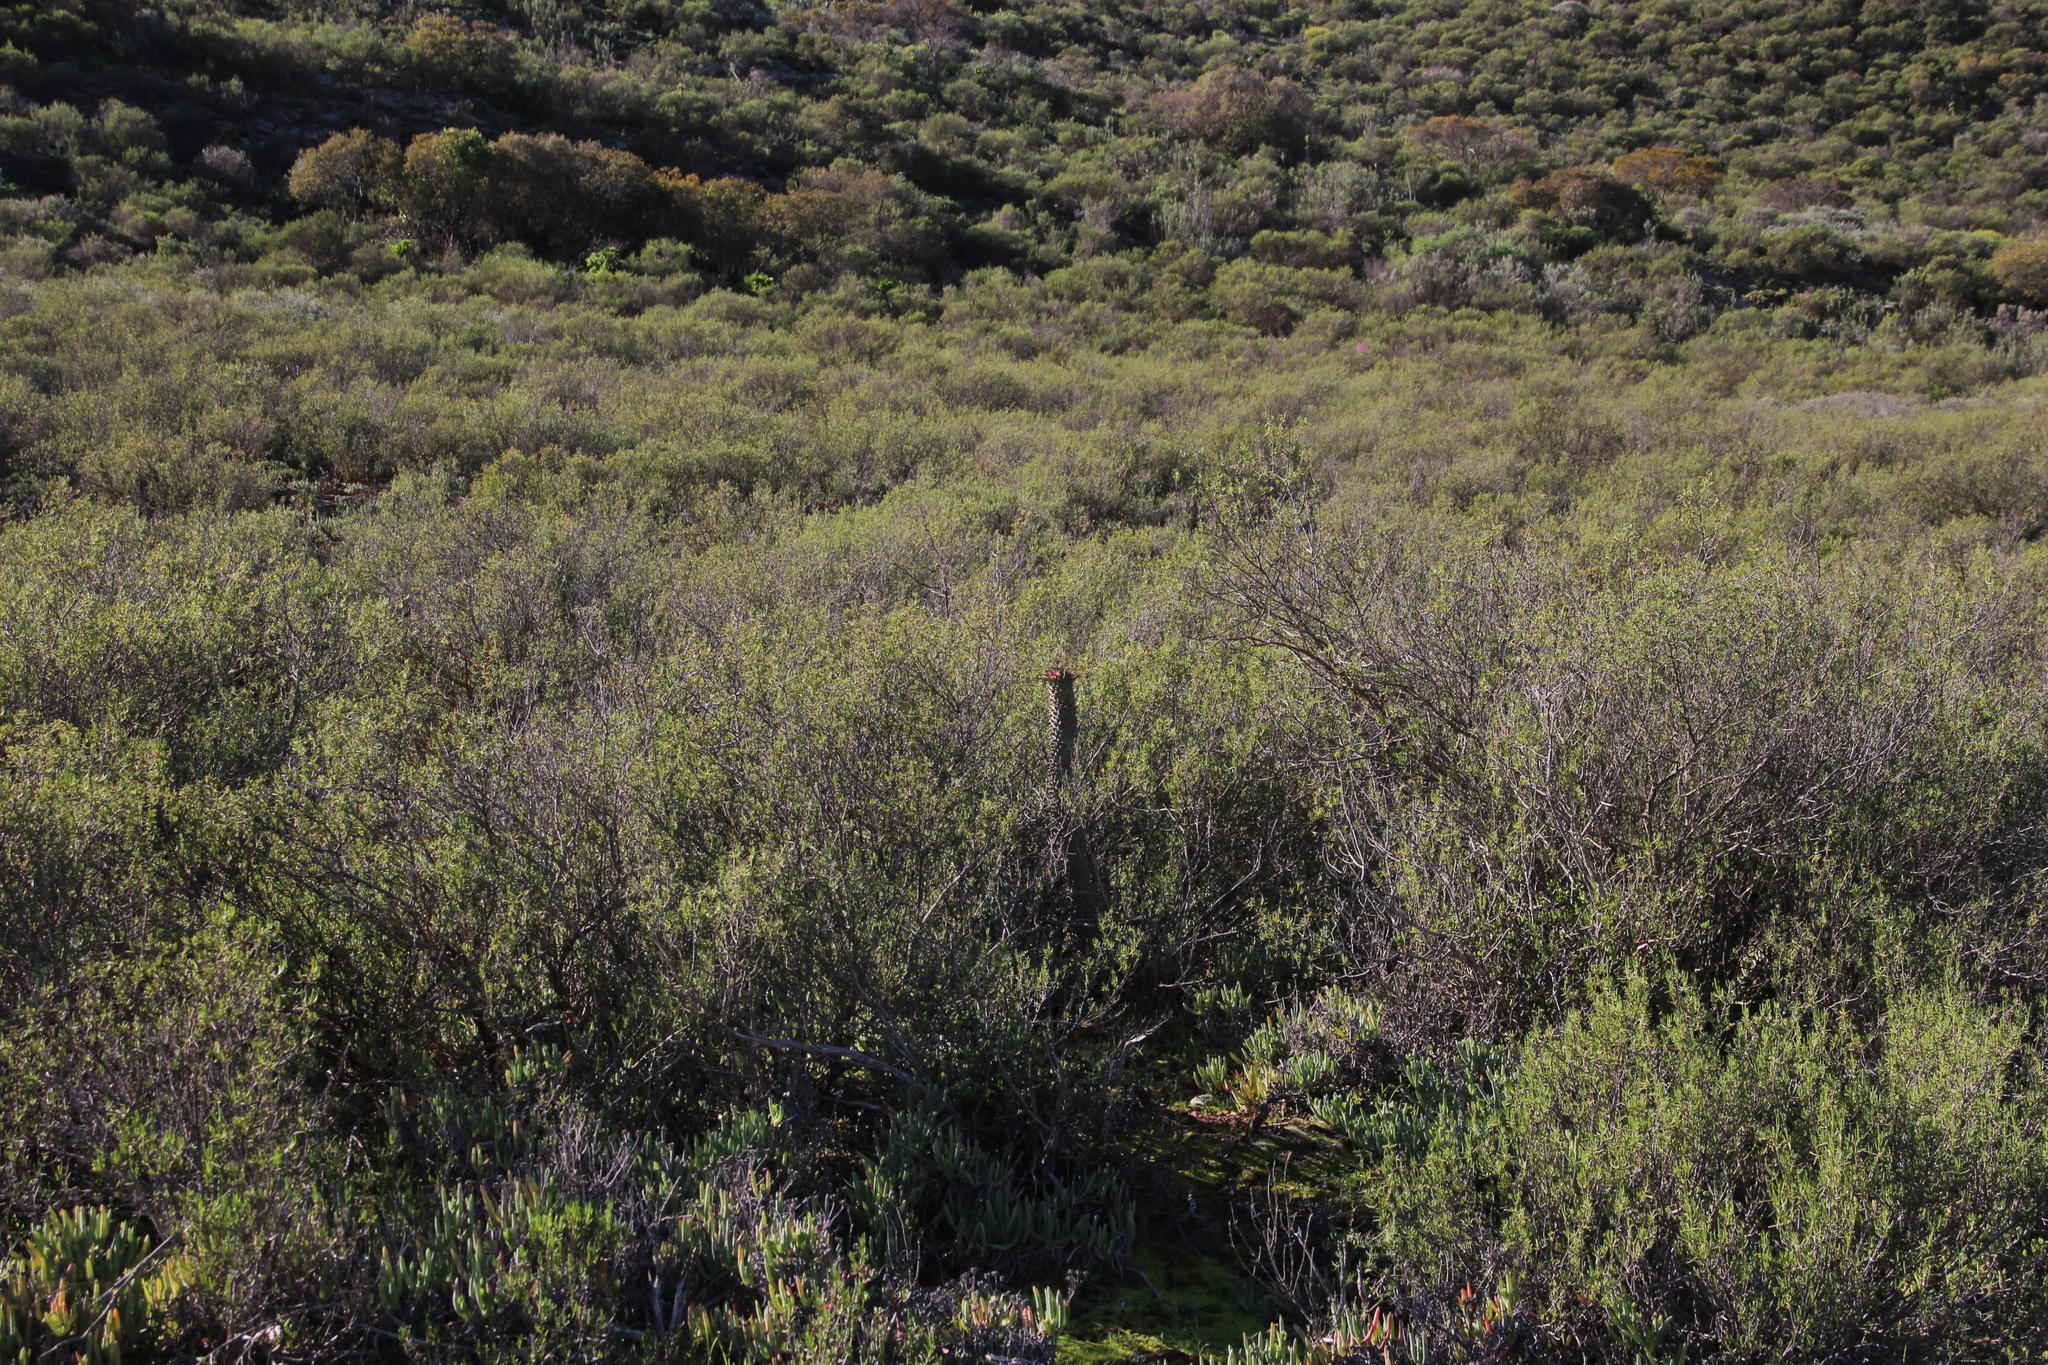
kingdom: Plantae
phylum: Tracheophyta
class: Magnoliopsida
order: Malpighiales
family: Euphorbiaceae
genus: Euphorbia
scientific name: Euphorbia clandestina
